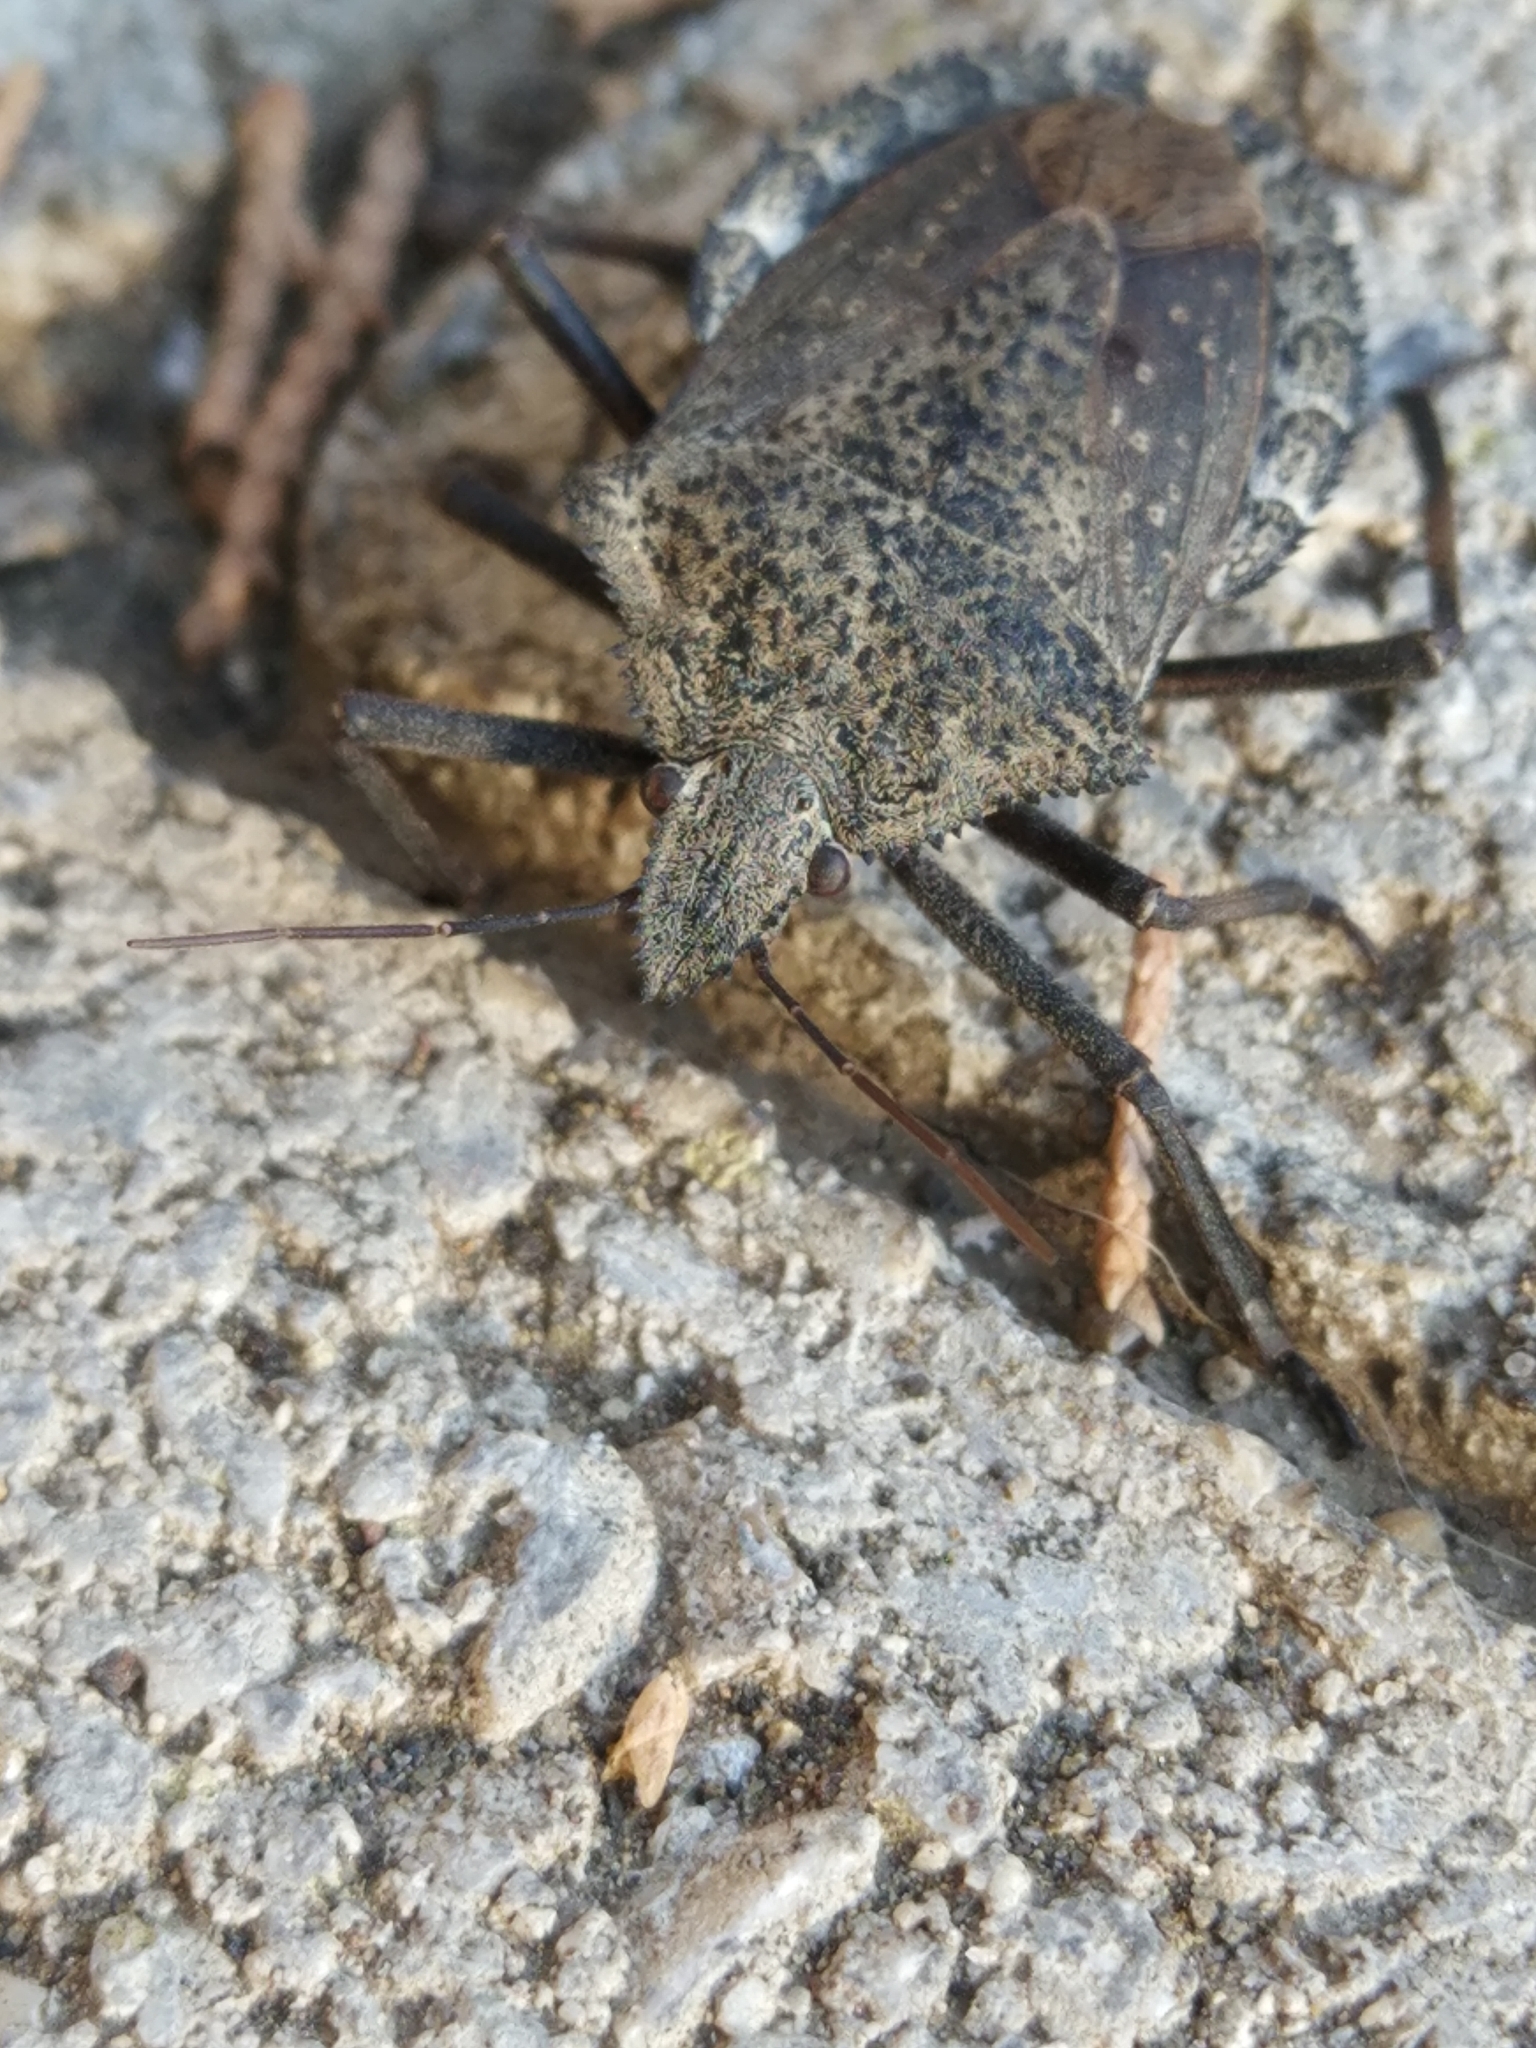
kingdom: Animalia
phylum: Arthropoda
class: Insecta
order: Hemiptera
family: Pentatomidae
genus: Mustha
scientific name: Mustha spinosula
